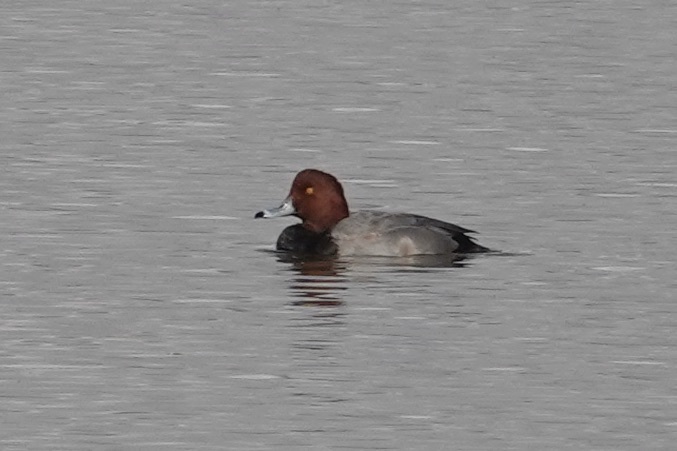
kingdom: Animalia
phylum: Chordata
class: Aves
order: Anseriformes
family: Anatidae
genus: Aythya
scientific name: Aythya americana
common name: Redhead
